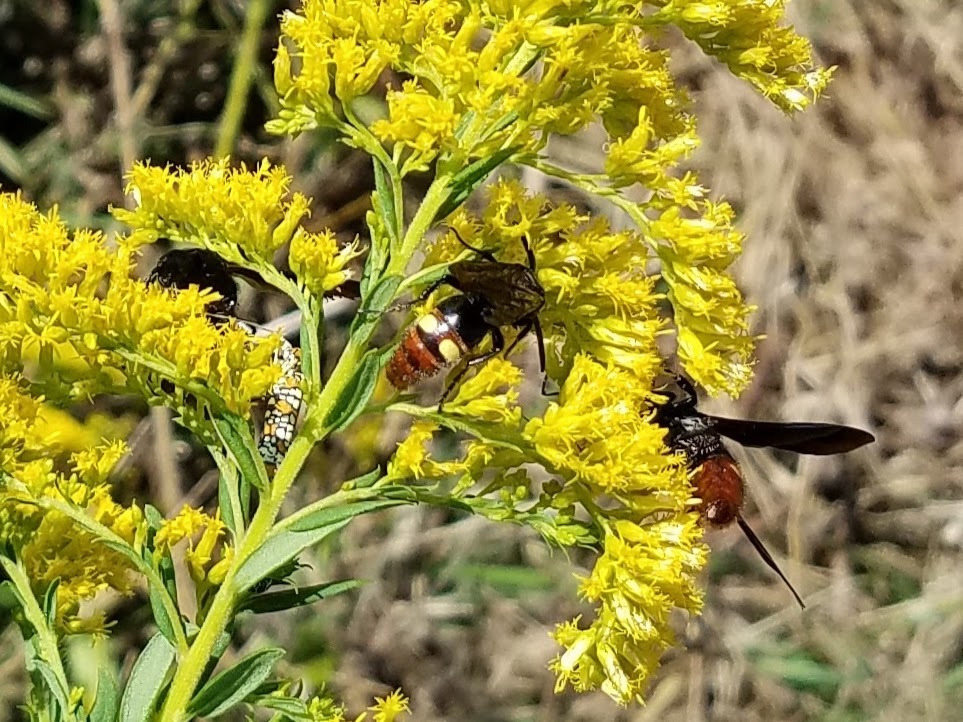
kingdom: Animalia
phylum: Arthropoda
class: Insecta
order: Hymenoptera
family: Scoliidae
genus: Scolia
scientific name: Scolia dubia
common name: Blue-winged scoliid wasp
